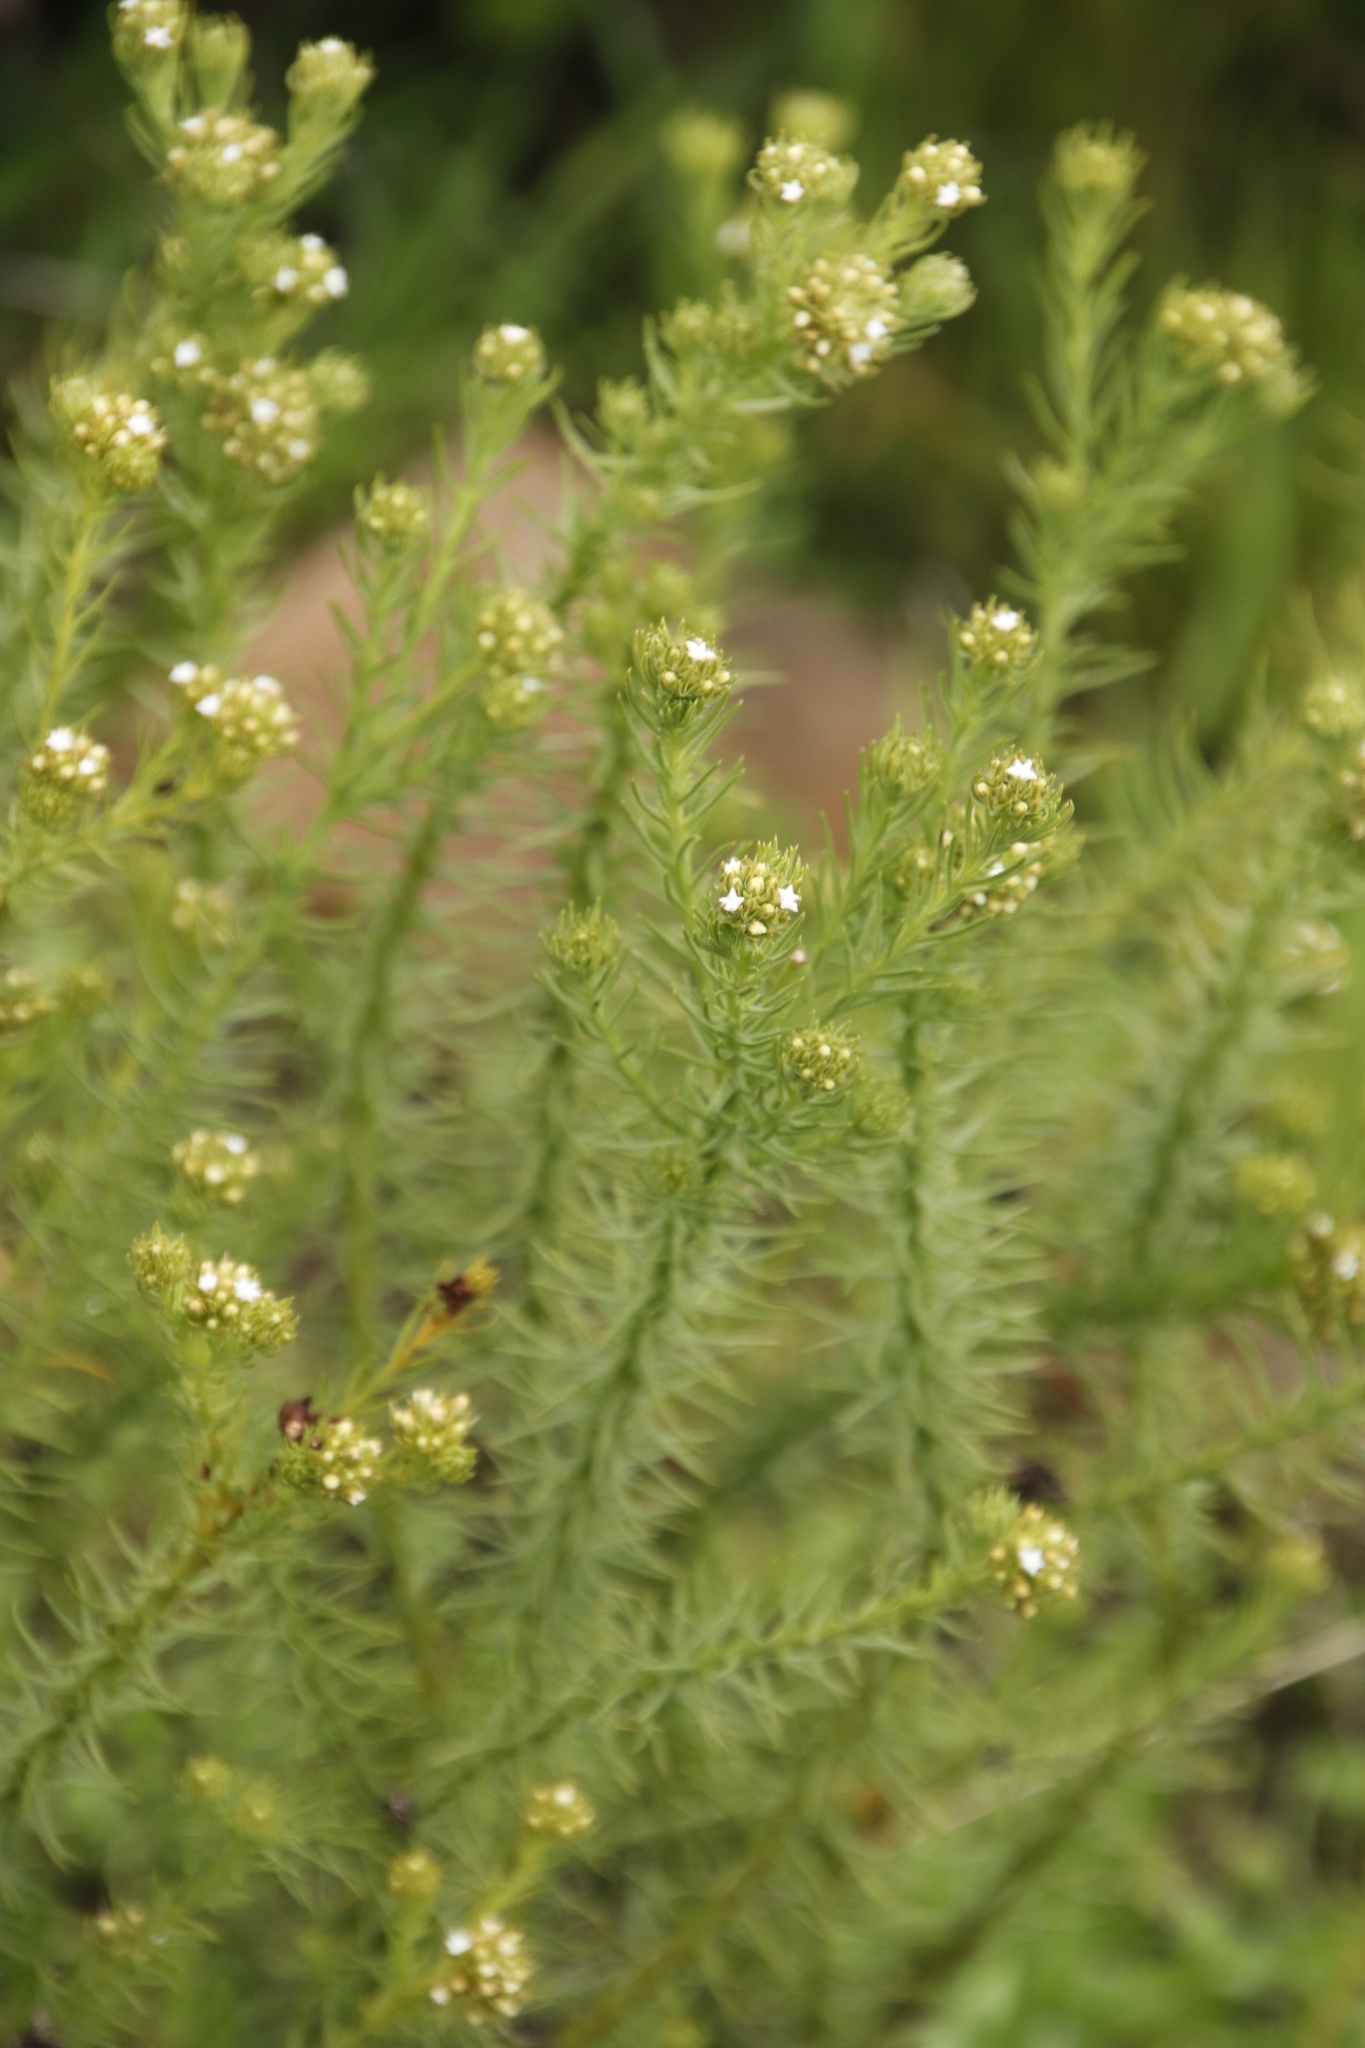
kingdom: Plantae
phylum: Tracheophyta
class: Magnoliopsida
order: Santalales
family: Thesiaceae
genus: Thesium
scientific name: Thesium scabrum
